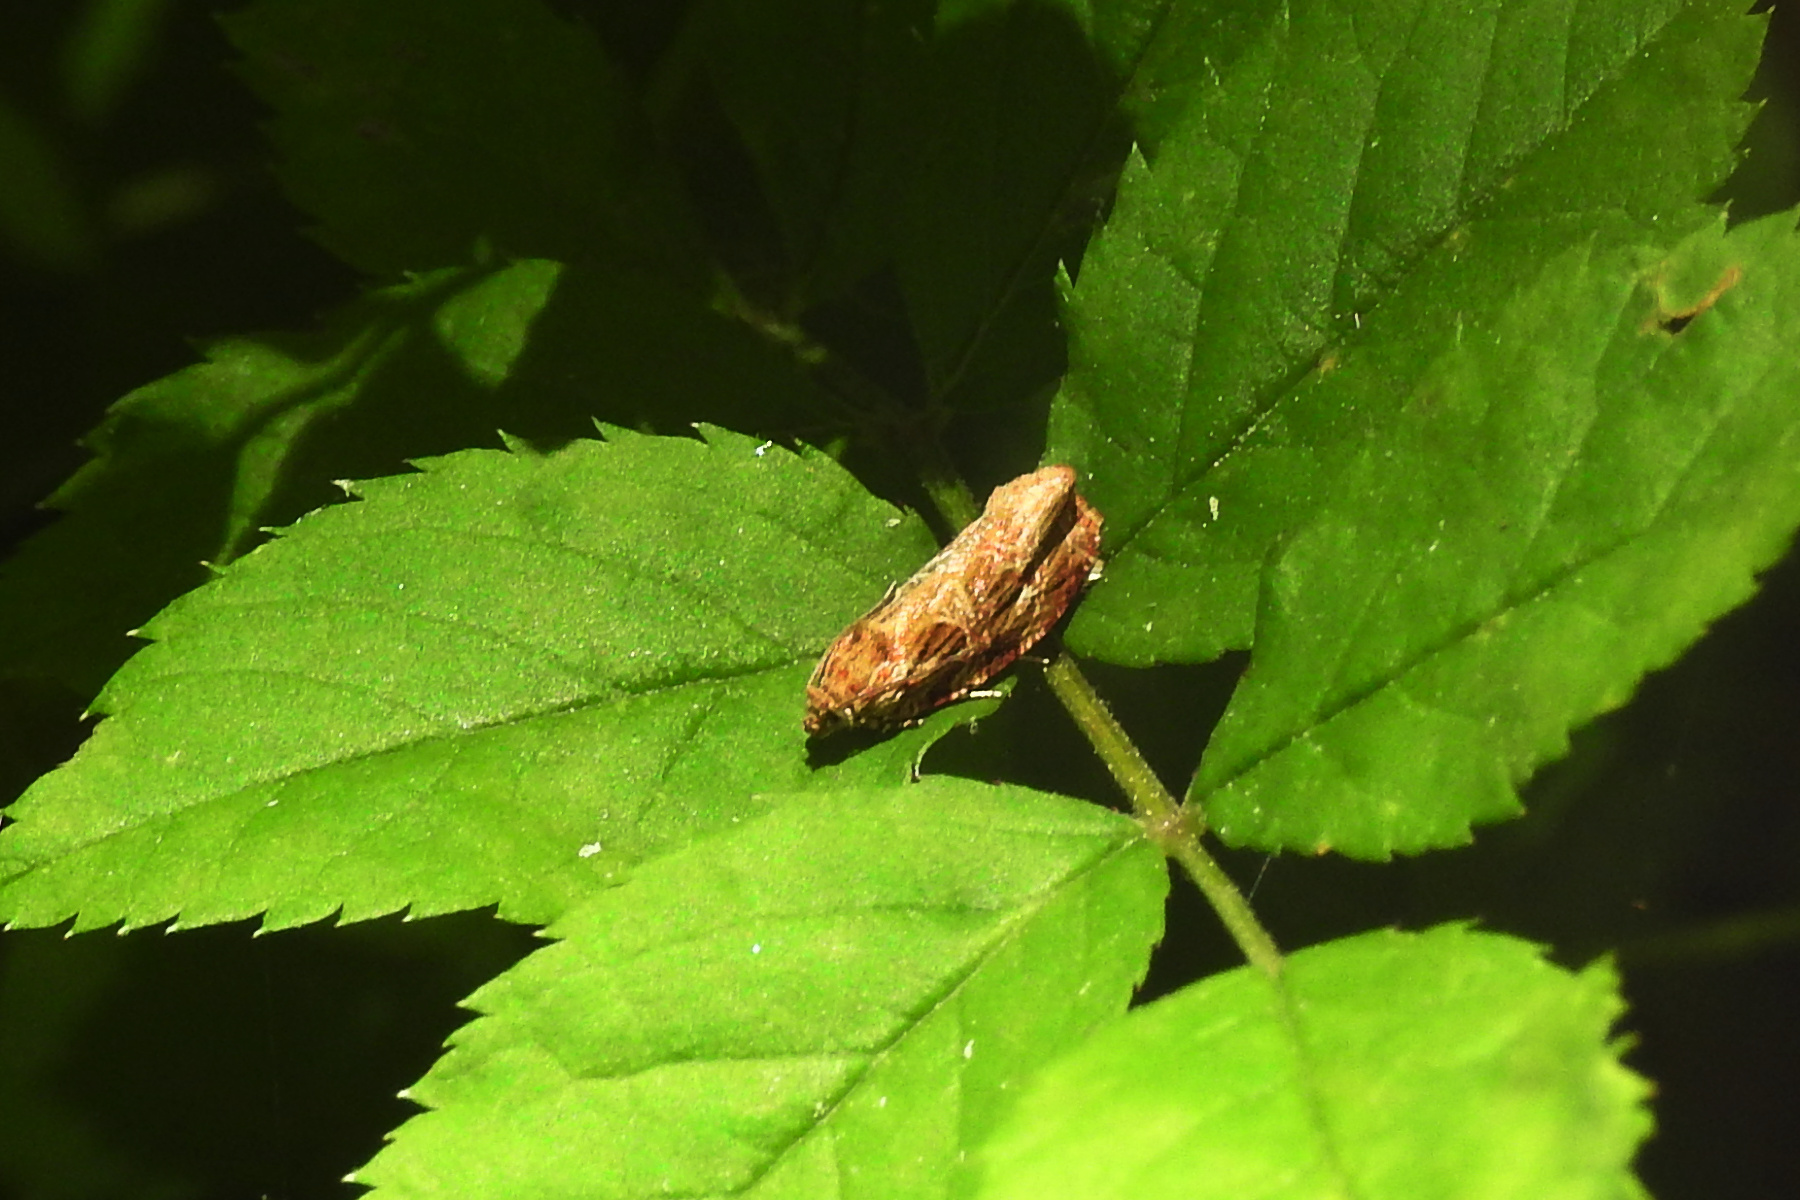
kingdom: Animalia
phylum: Arthropoda
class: Insecta
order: Lepidoptera
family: Tortricidae
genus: Phaecasiophora
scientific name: Phaecasiophora confixana
